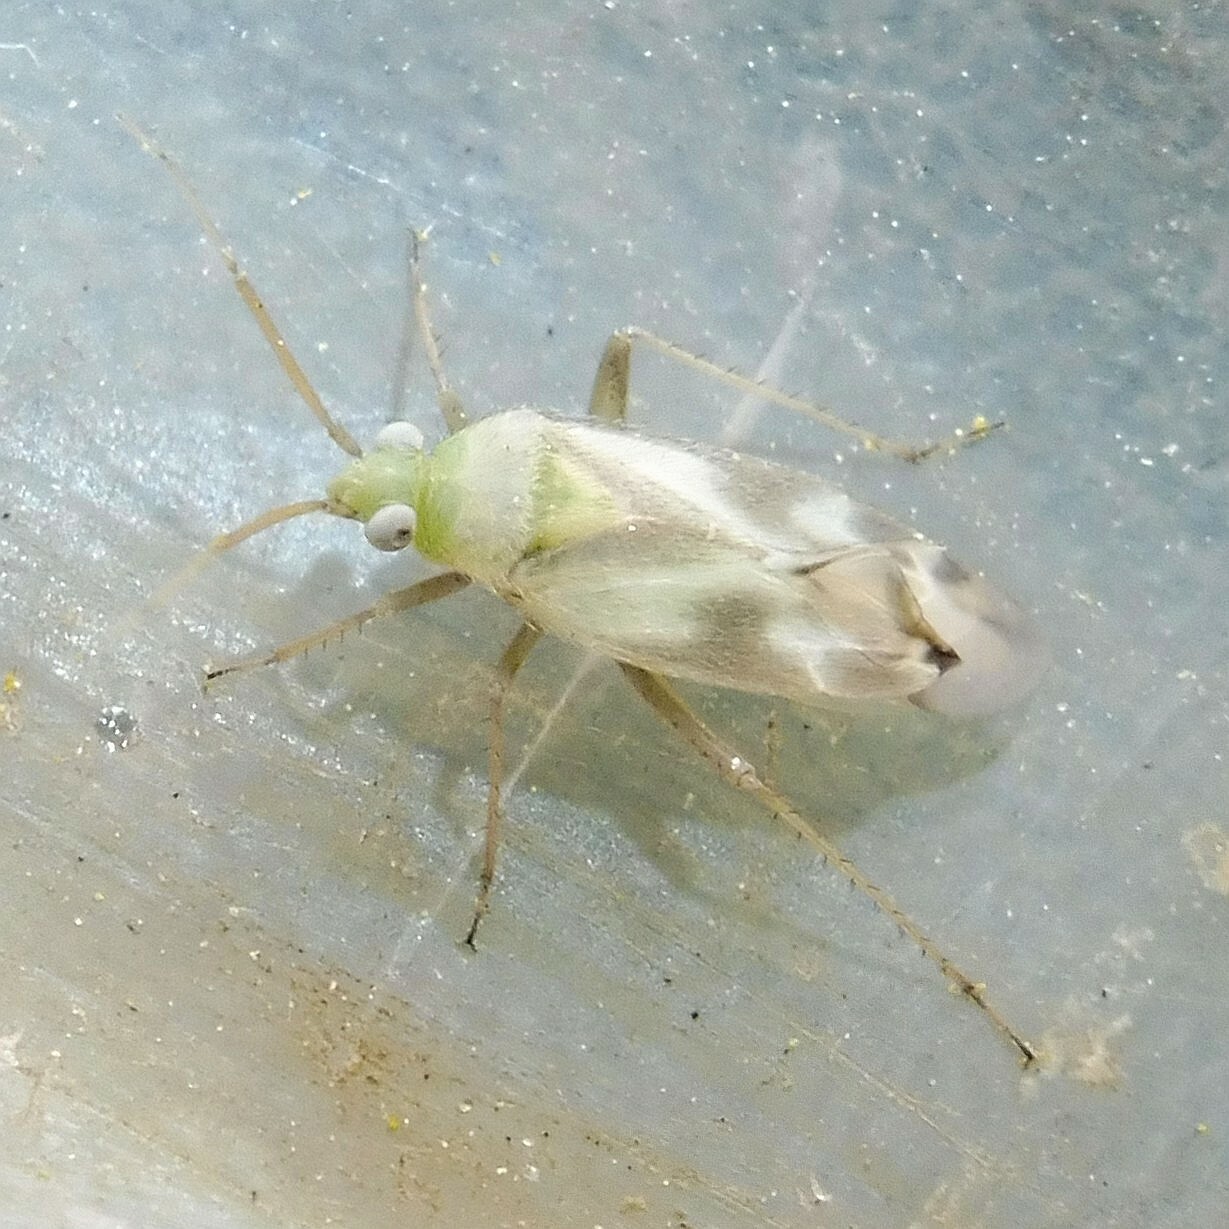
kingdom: Animalia
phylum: Arthropoda
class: Insecta
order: Hemiptera
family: Miridae
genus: Megalocoleus
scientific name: Megalocoleus molliculus
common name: Plant bug
